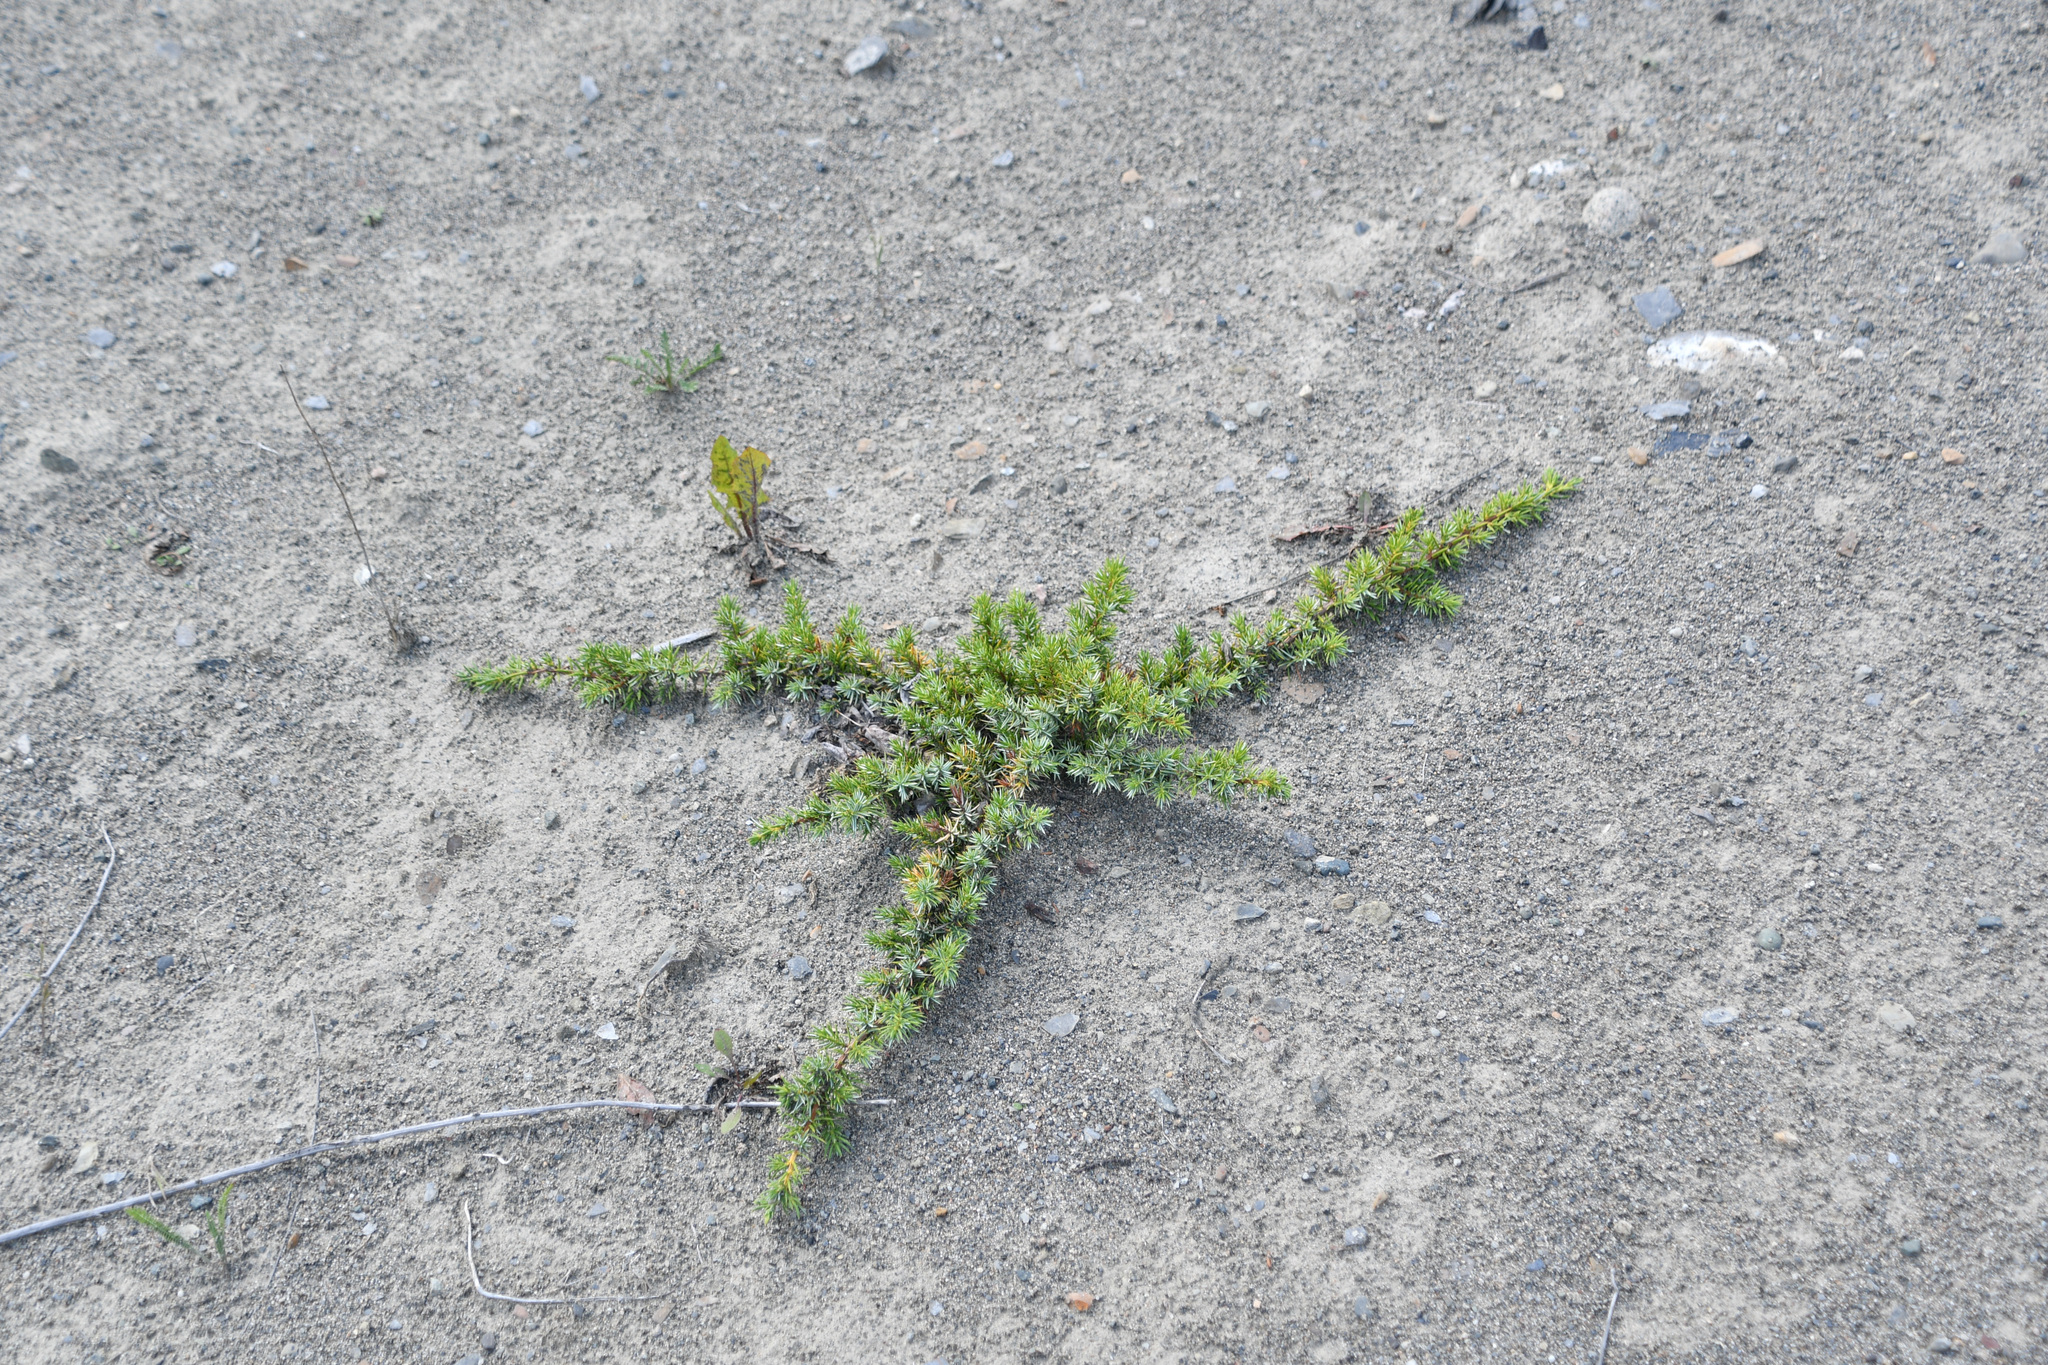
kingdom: Plantae
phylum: Tracheophyta
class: Pinopsida
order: Pinales
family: Cupressaceae
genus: Juniperus
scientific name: Juniperus communis
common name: Common juniper
